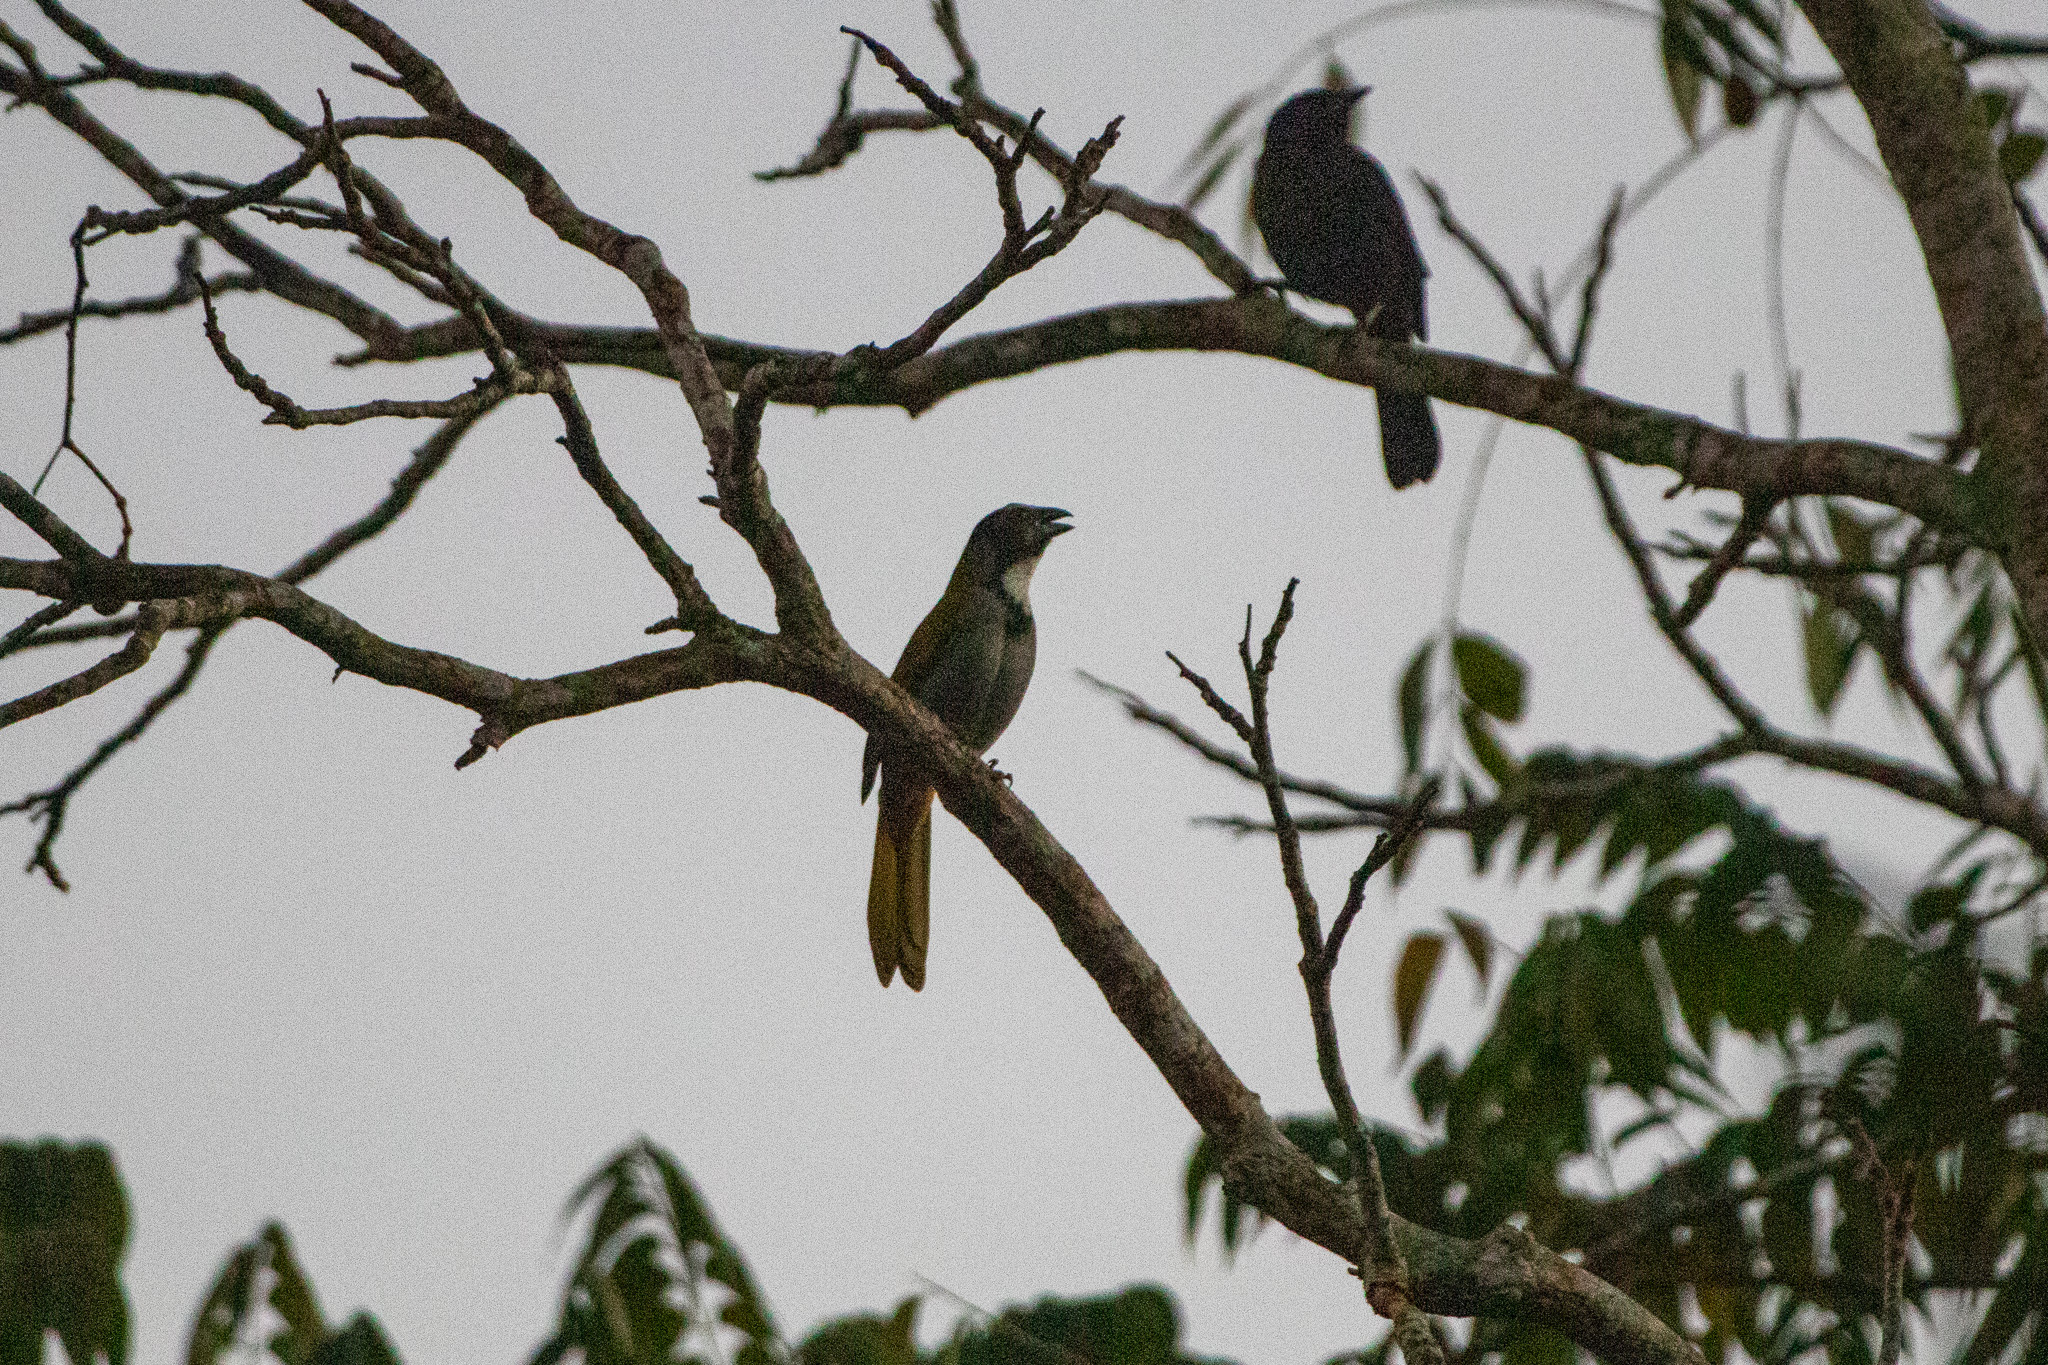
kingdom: Animalia
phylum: Chordata
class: Aves
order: Passeriformes
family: Thraupidae
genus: Saltator
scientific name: Saltator atriceps
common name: Black-headed saltator
